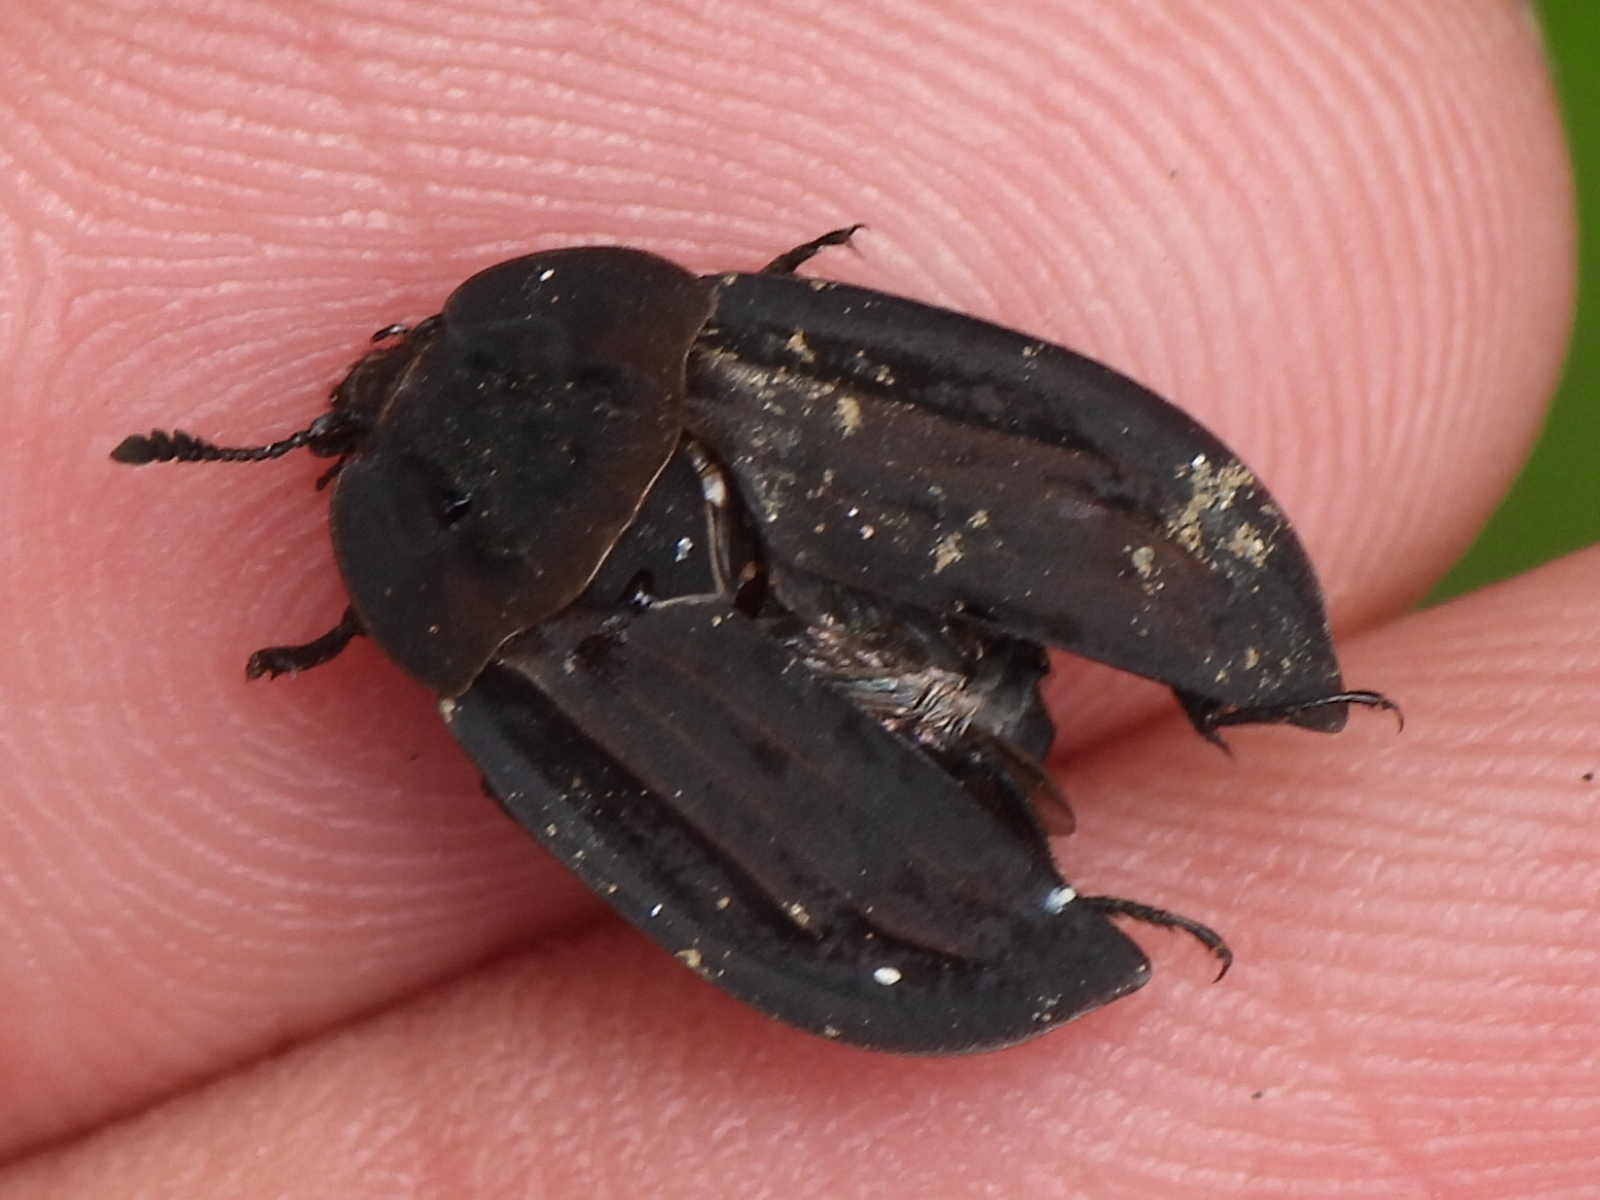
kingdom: Animalia
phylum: Arthropoda
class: Insecta
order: Coleoptera
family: Staphylinidae
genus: Oiceoptoma
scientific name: Oiceoptoma inaequale
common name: Ridged carrion beetle
